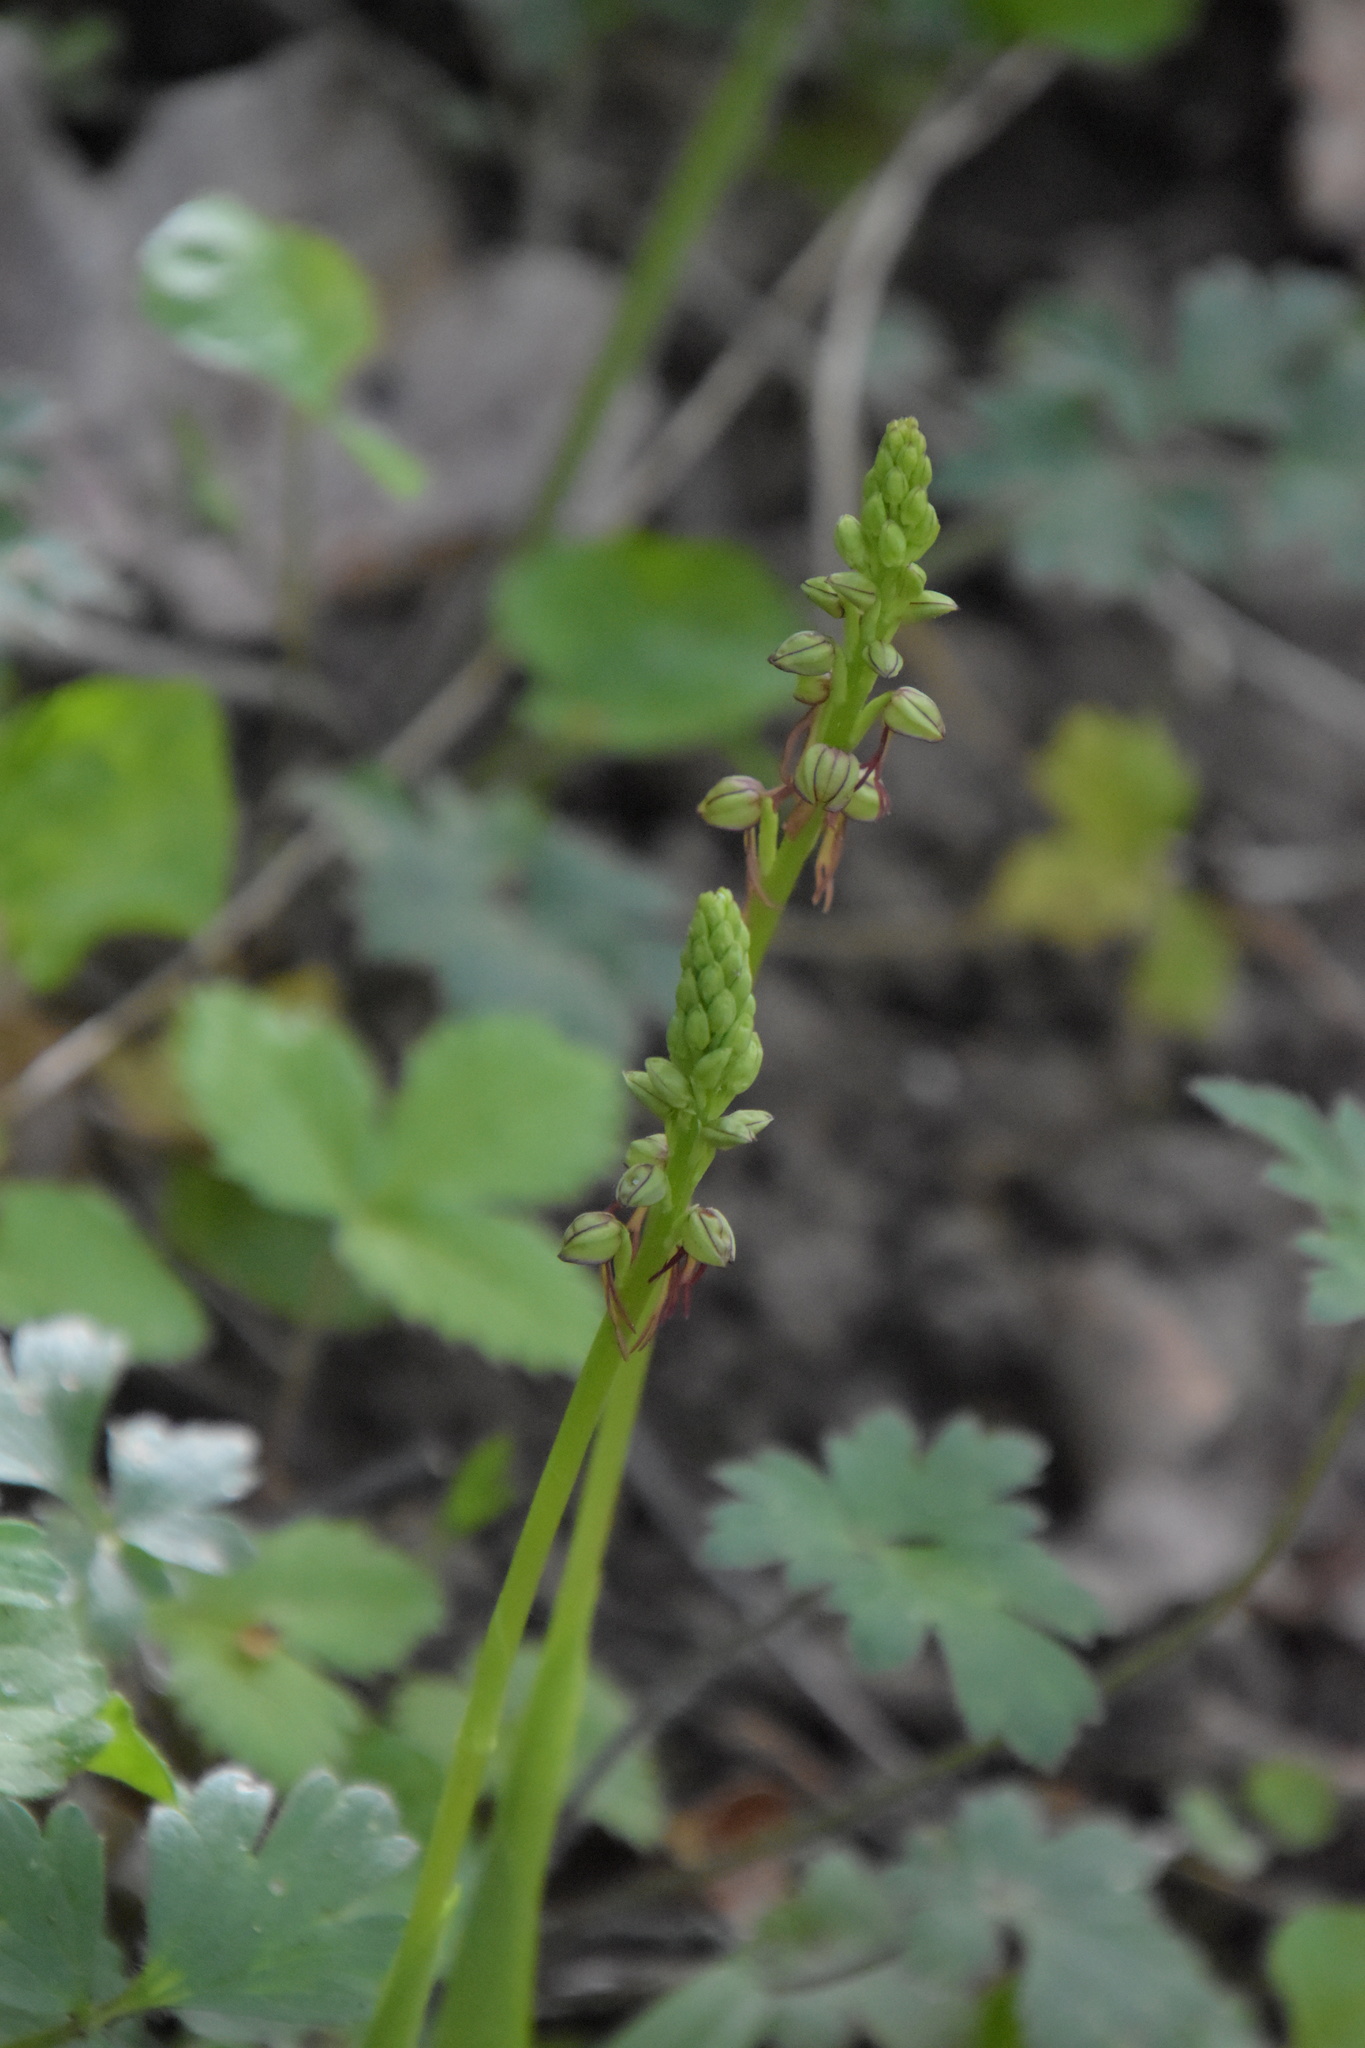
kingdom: Plantae
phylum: Tracheophyta
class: Liliopsida
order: Asparagales
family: Orchidaceae
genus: Orchis
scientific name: Orchis anthropophora
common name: Man orchid
